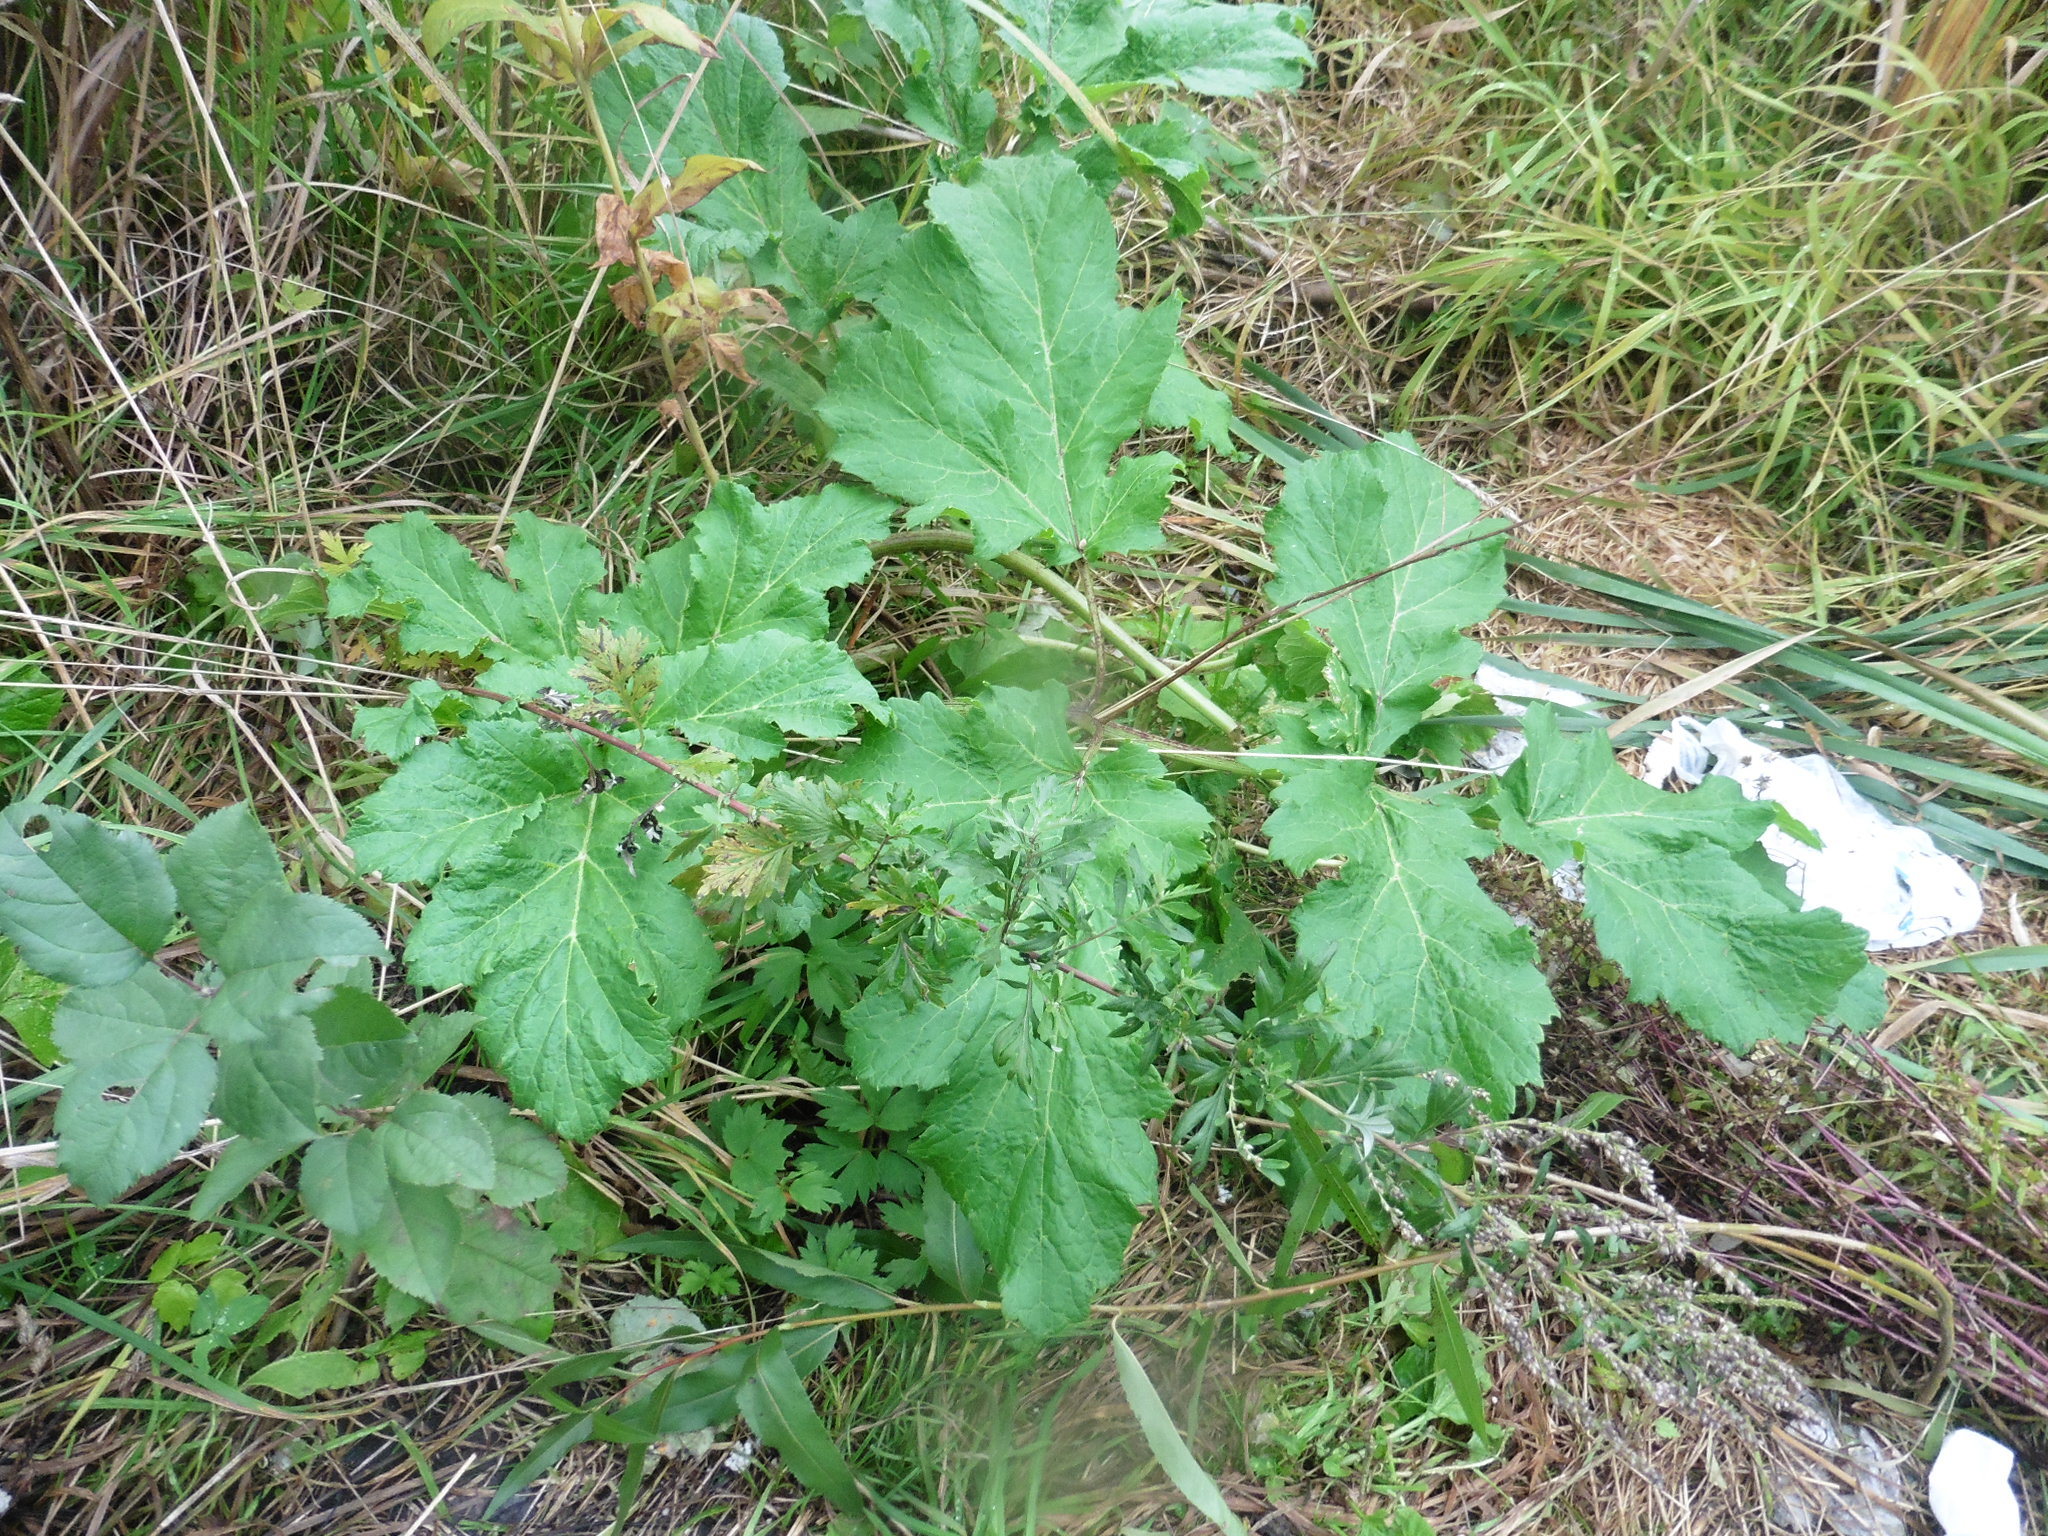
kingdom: Plantae
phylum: Tracheophyta
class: Magnoliopsida
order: Apiales
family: Apiaceae
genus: Heracleum
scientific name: Heracleum sosnowskyi
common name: Sosnowsky's hogweed
